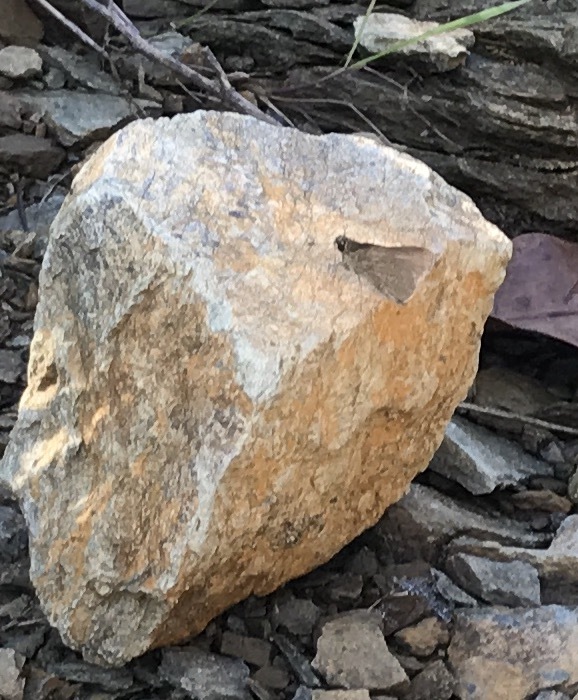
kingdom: Animalia
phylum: Arthropoda
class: Insecta
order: Lepidoptera
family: Hesperiidae
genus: Nastra
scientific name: Nastra lherminier
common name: Swarthy skipper
